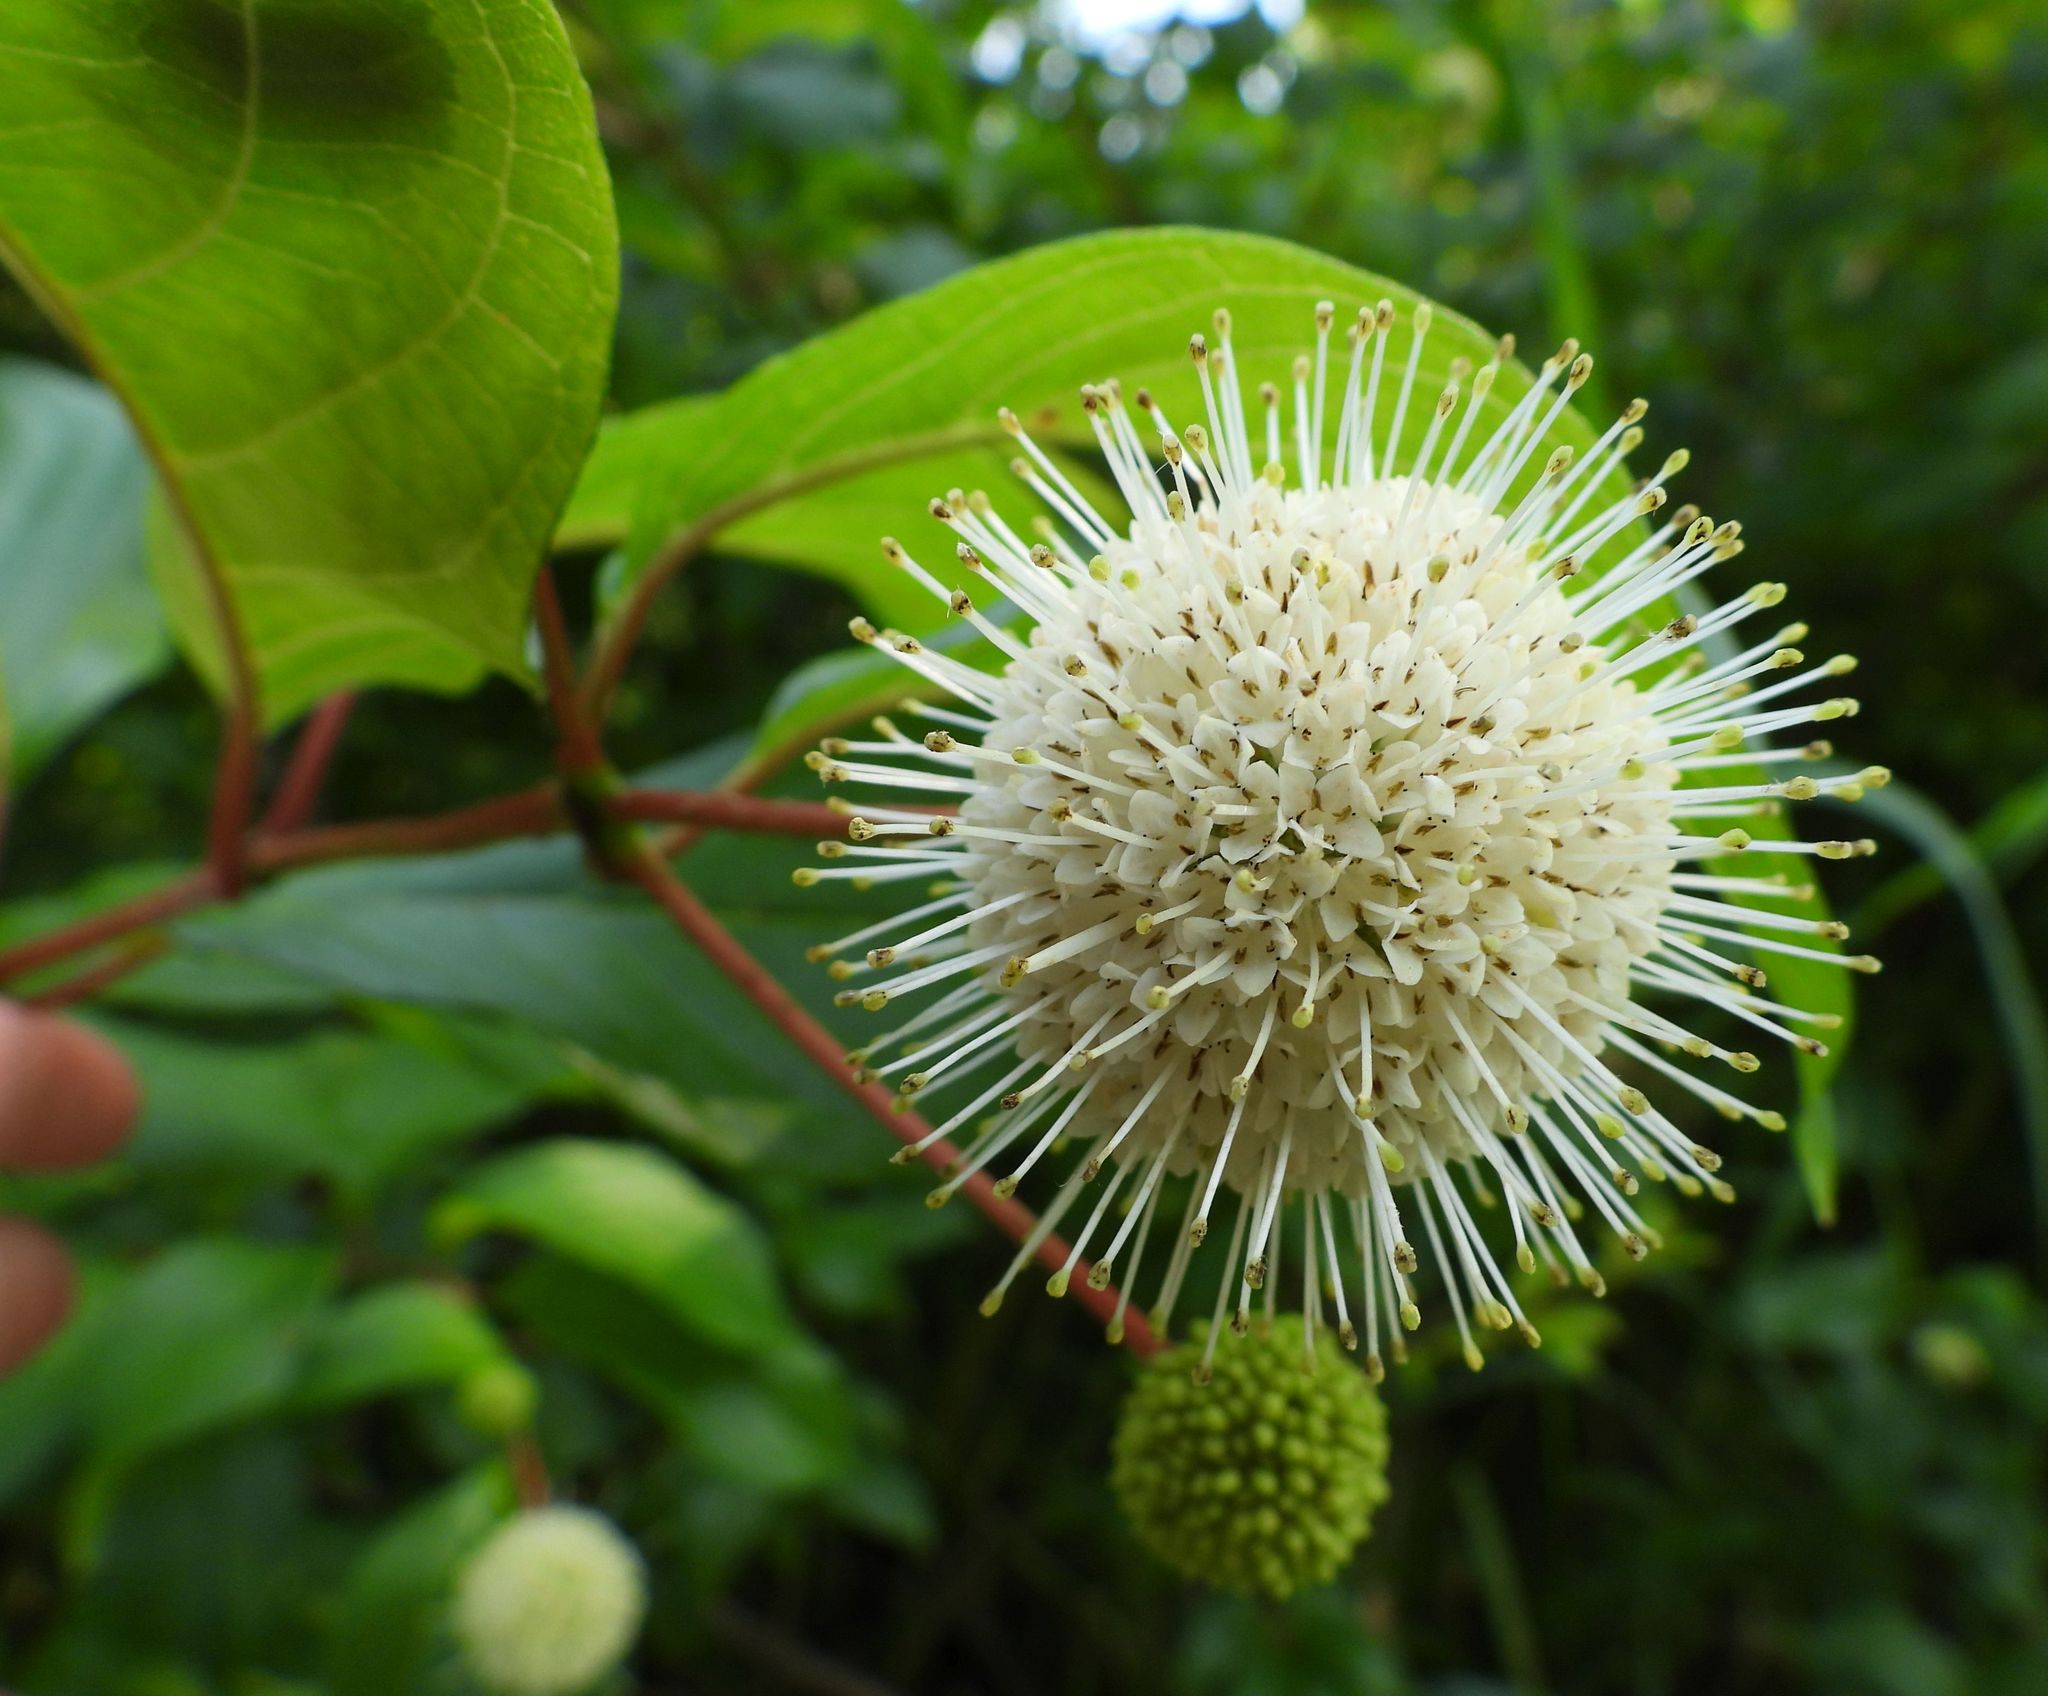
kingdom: Plantae
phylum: Tracheophyta
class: Magnoliopsida
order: Gentianales
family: Rubiaceae
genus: Cephalanthus
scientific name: Cephalanthus occidentalis
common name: Button-willow
